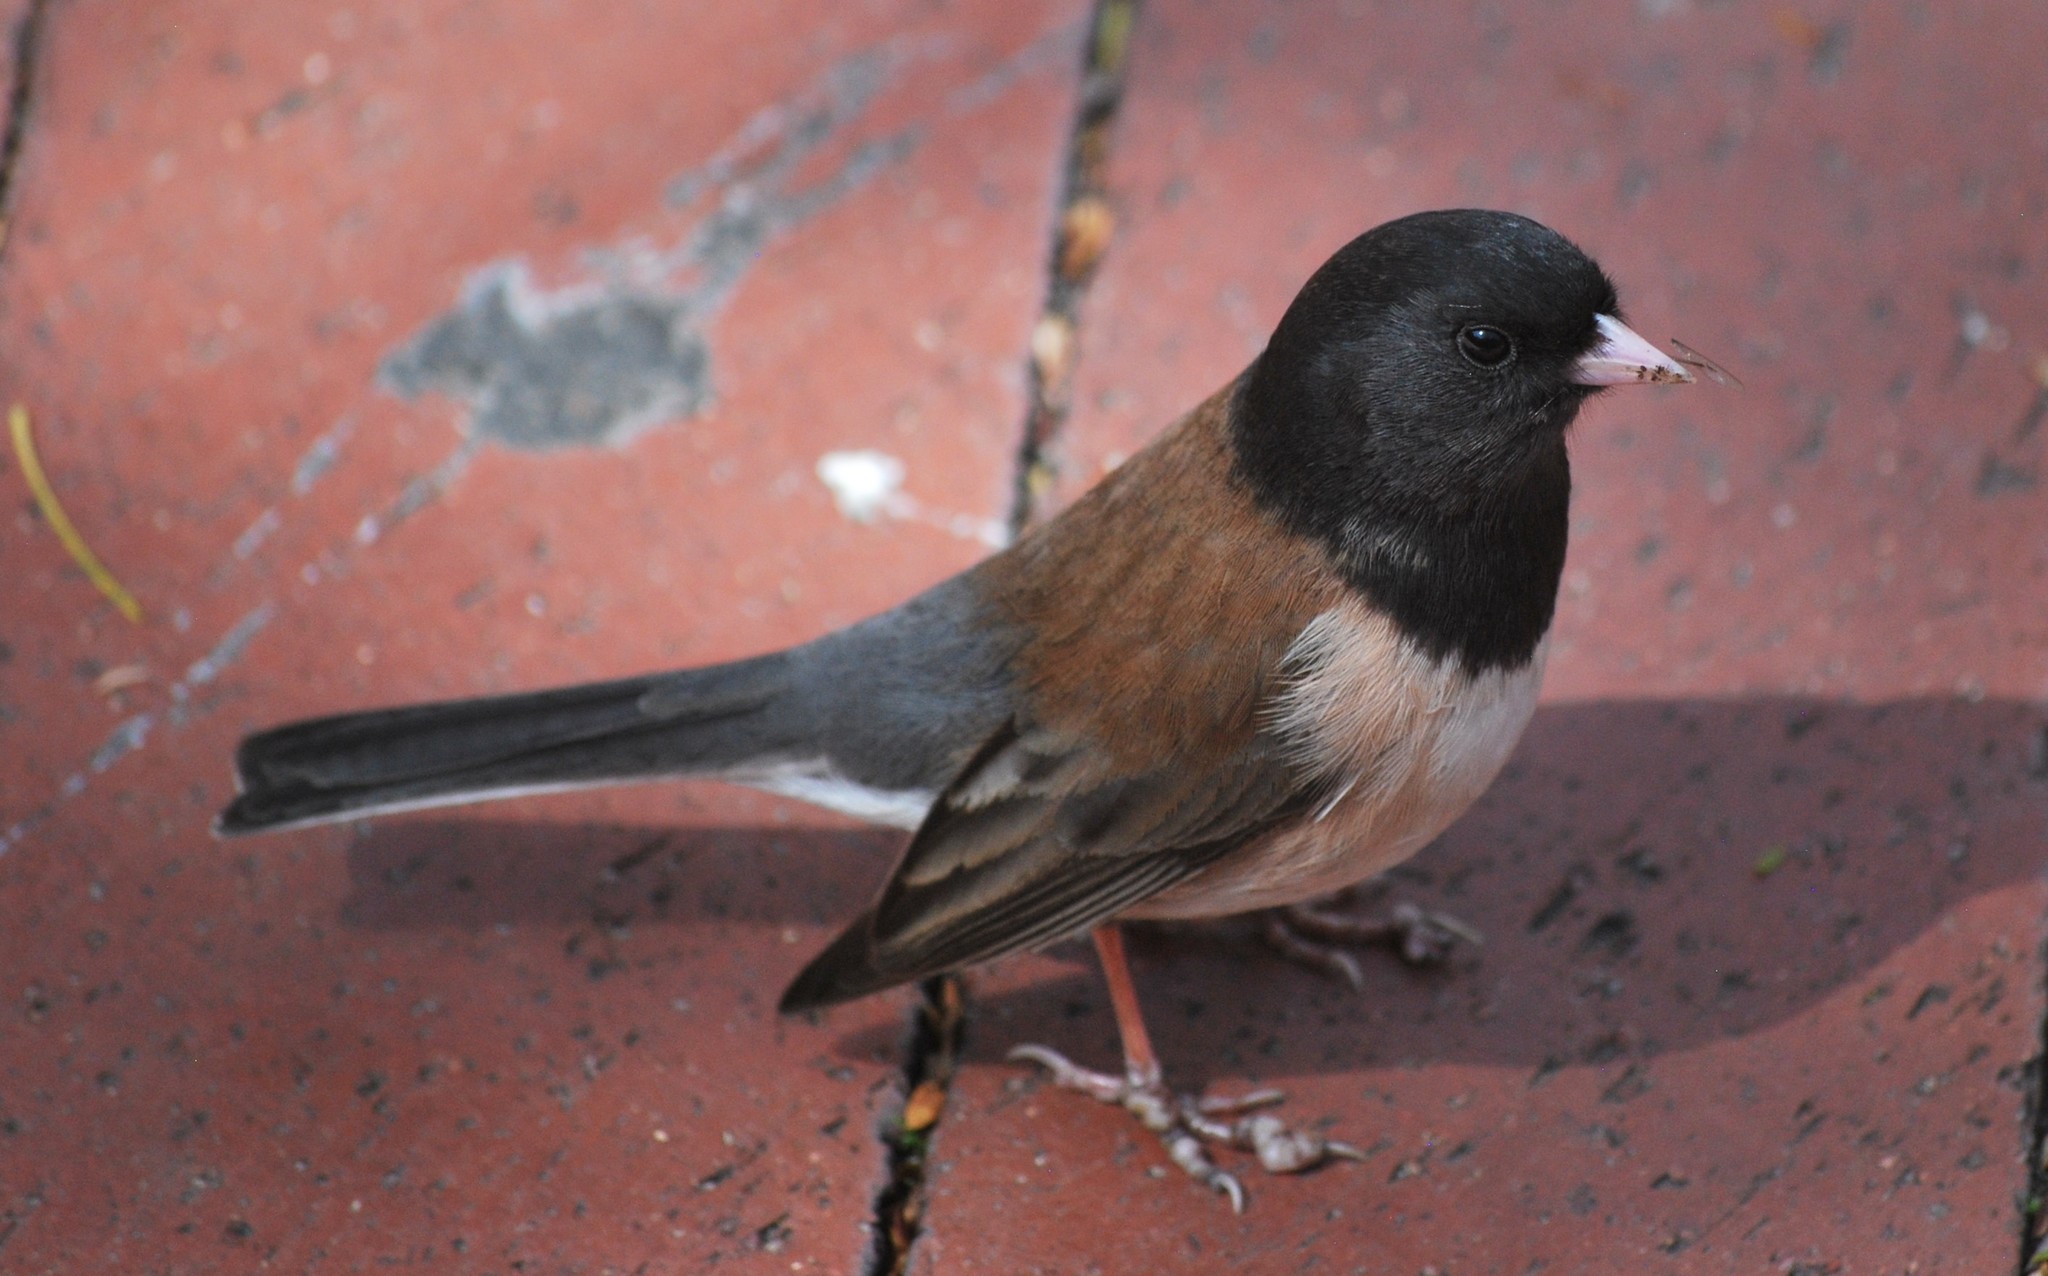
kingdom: Animalia
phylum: Chordata
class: Aves
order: Passeriformes
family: Passerellidae
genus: Junco
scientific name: Junco hyemalis
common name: Dark-eyed junco
